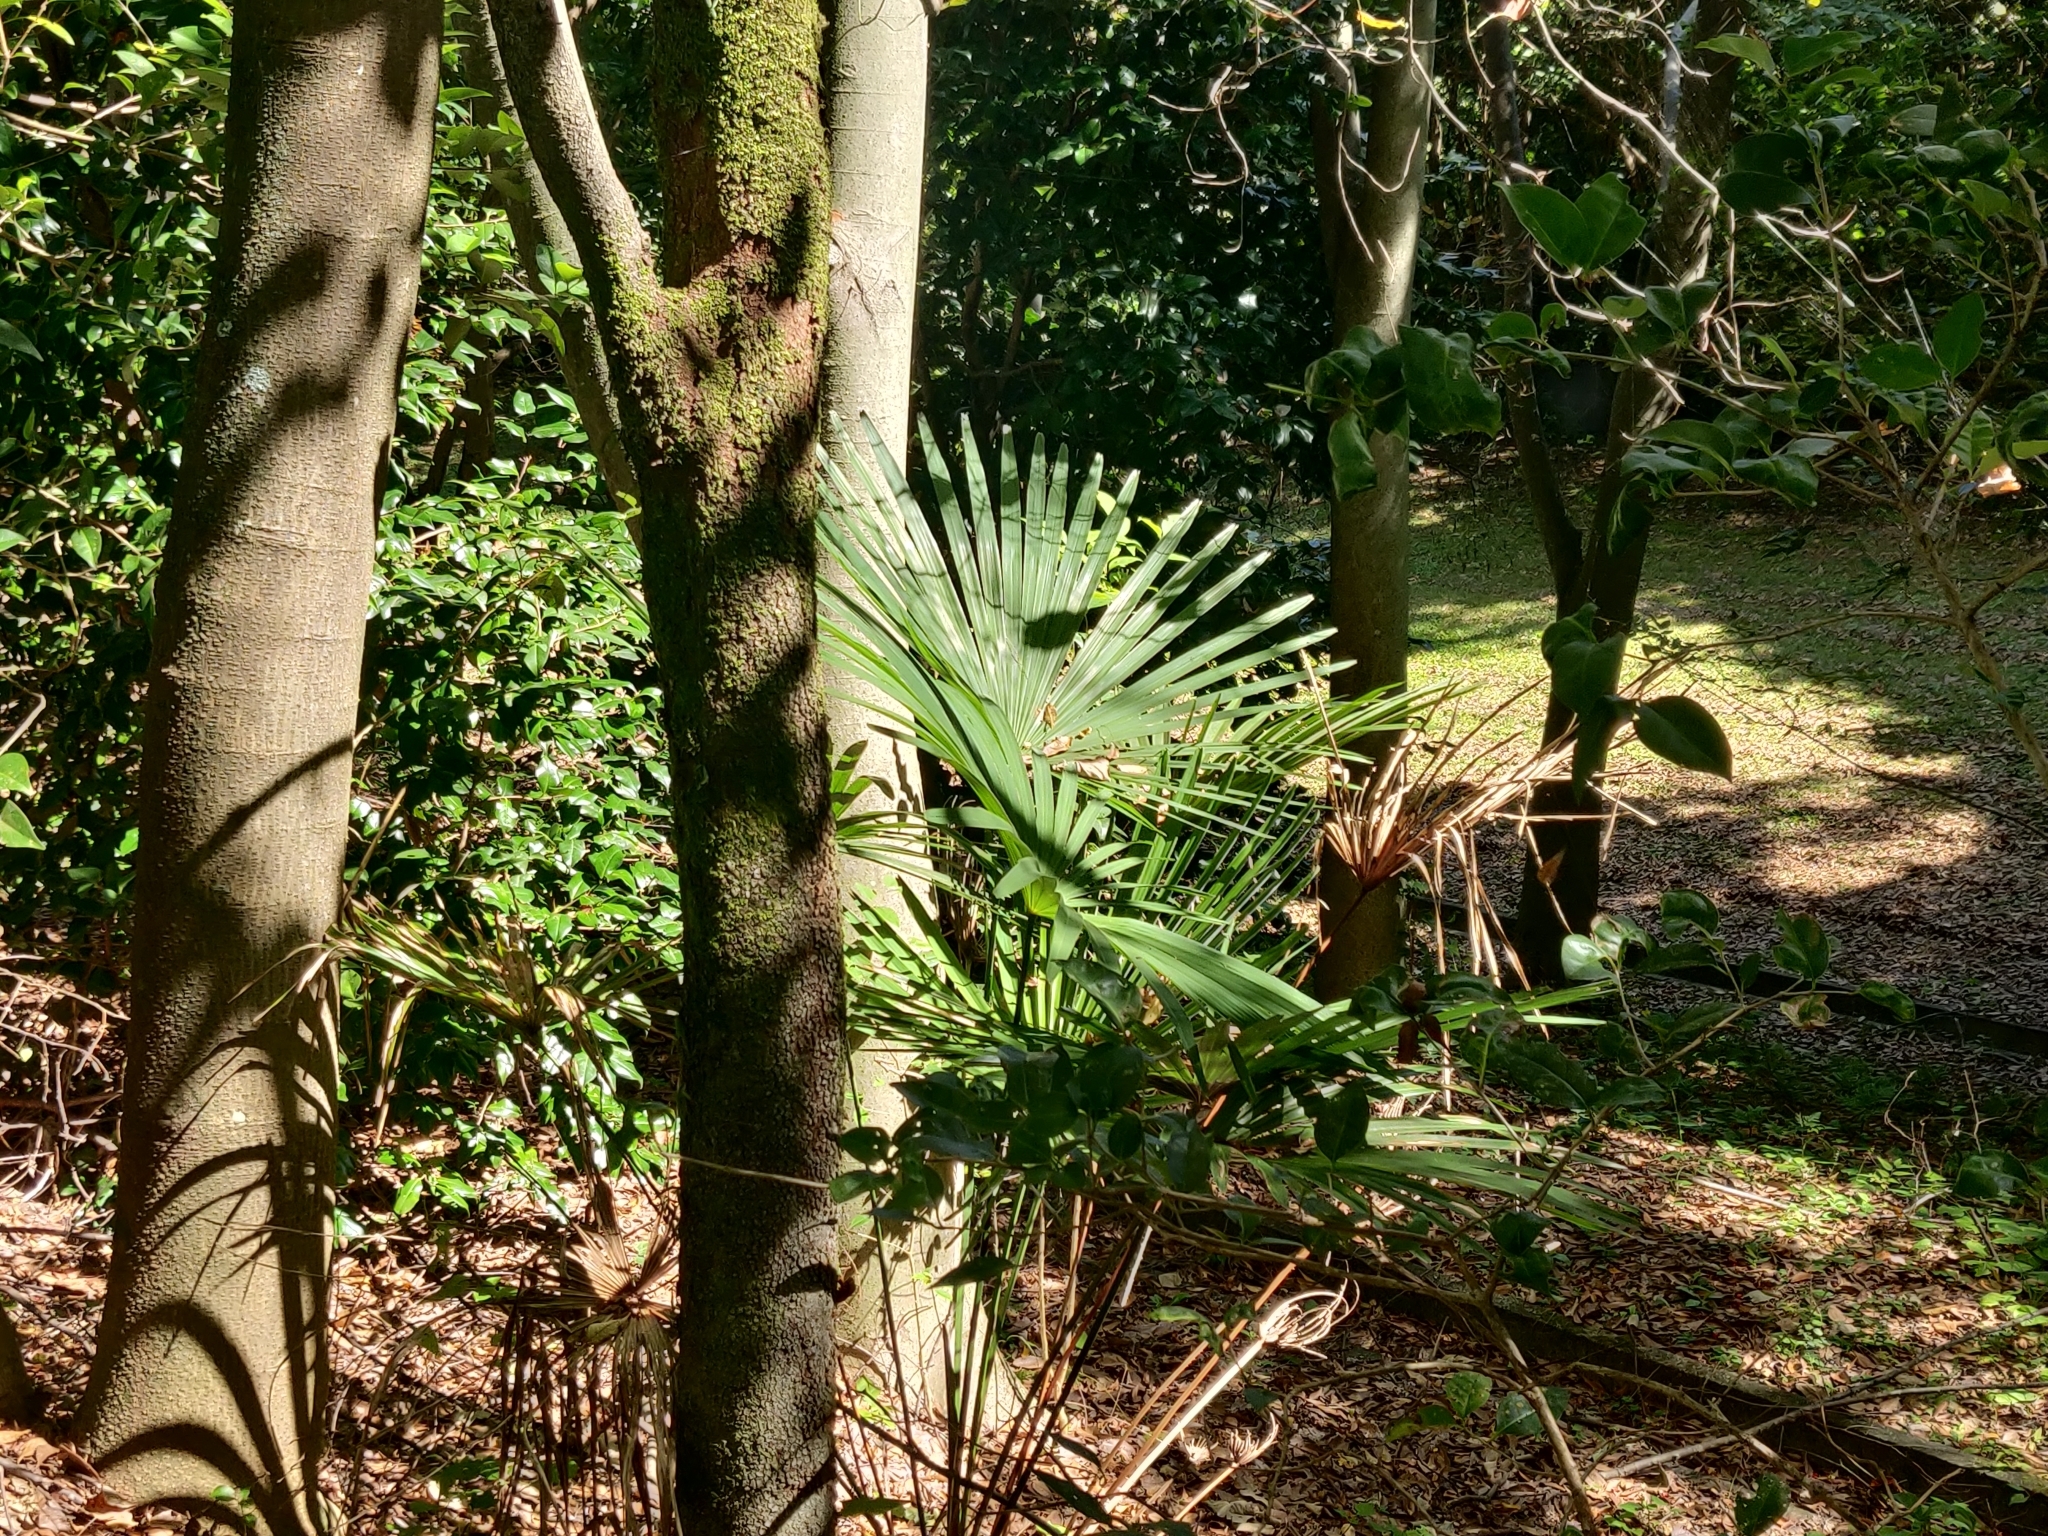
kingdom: Plantae
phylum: Tracheophyta
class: Liliopsida
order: Arecales
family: Arecaceae
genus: Trachycarpus
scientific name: Trachycarpus fortunei
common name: Chusan palm
